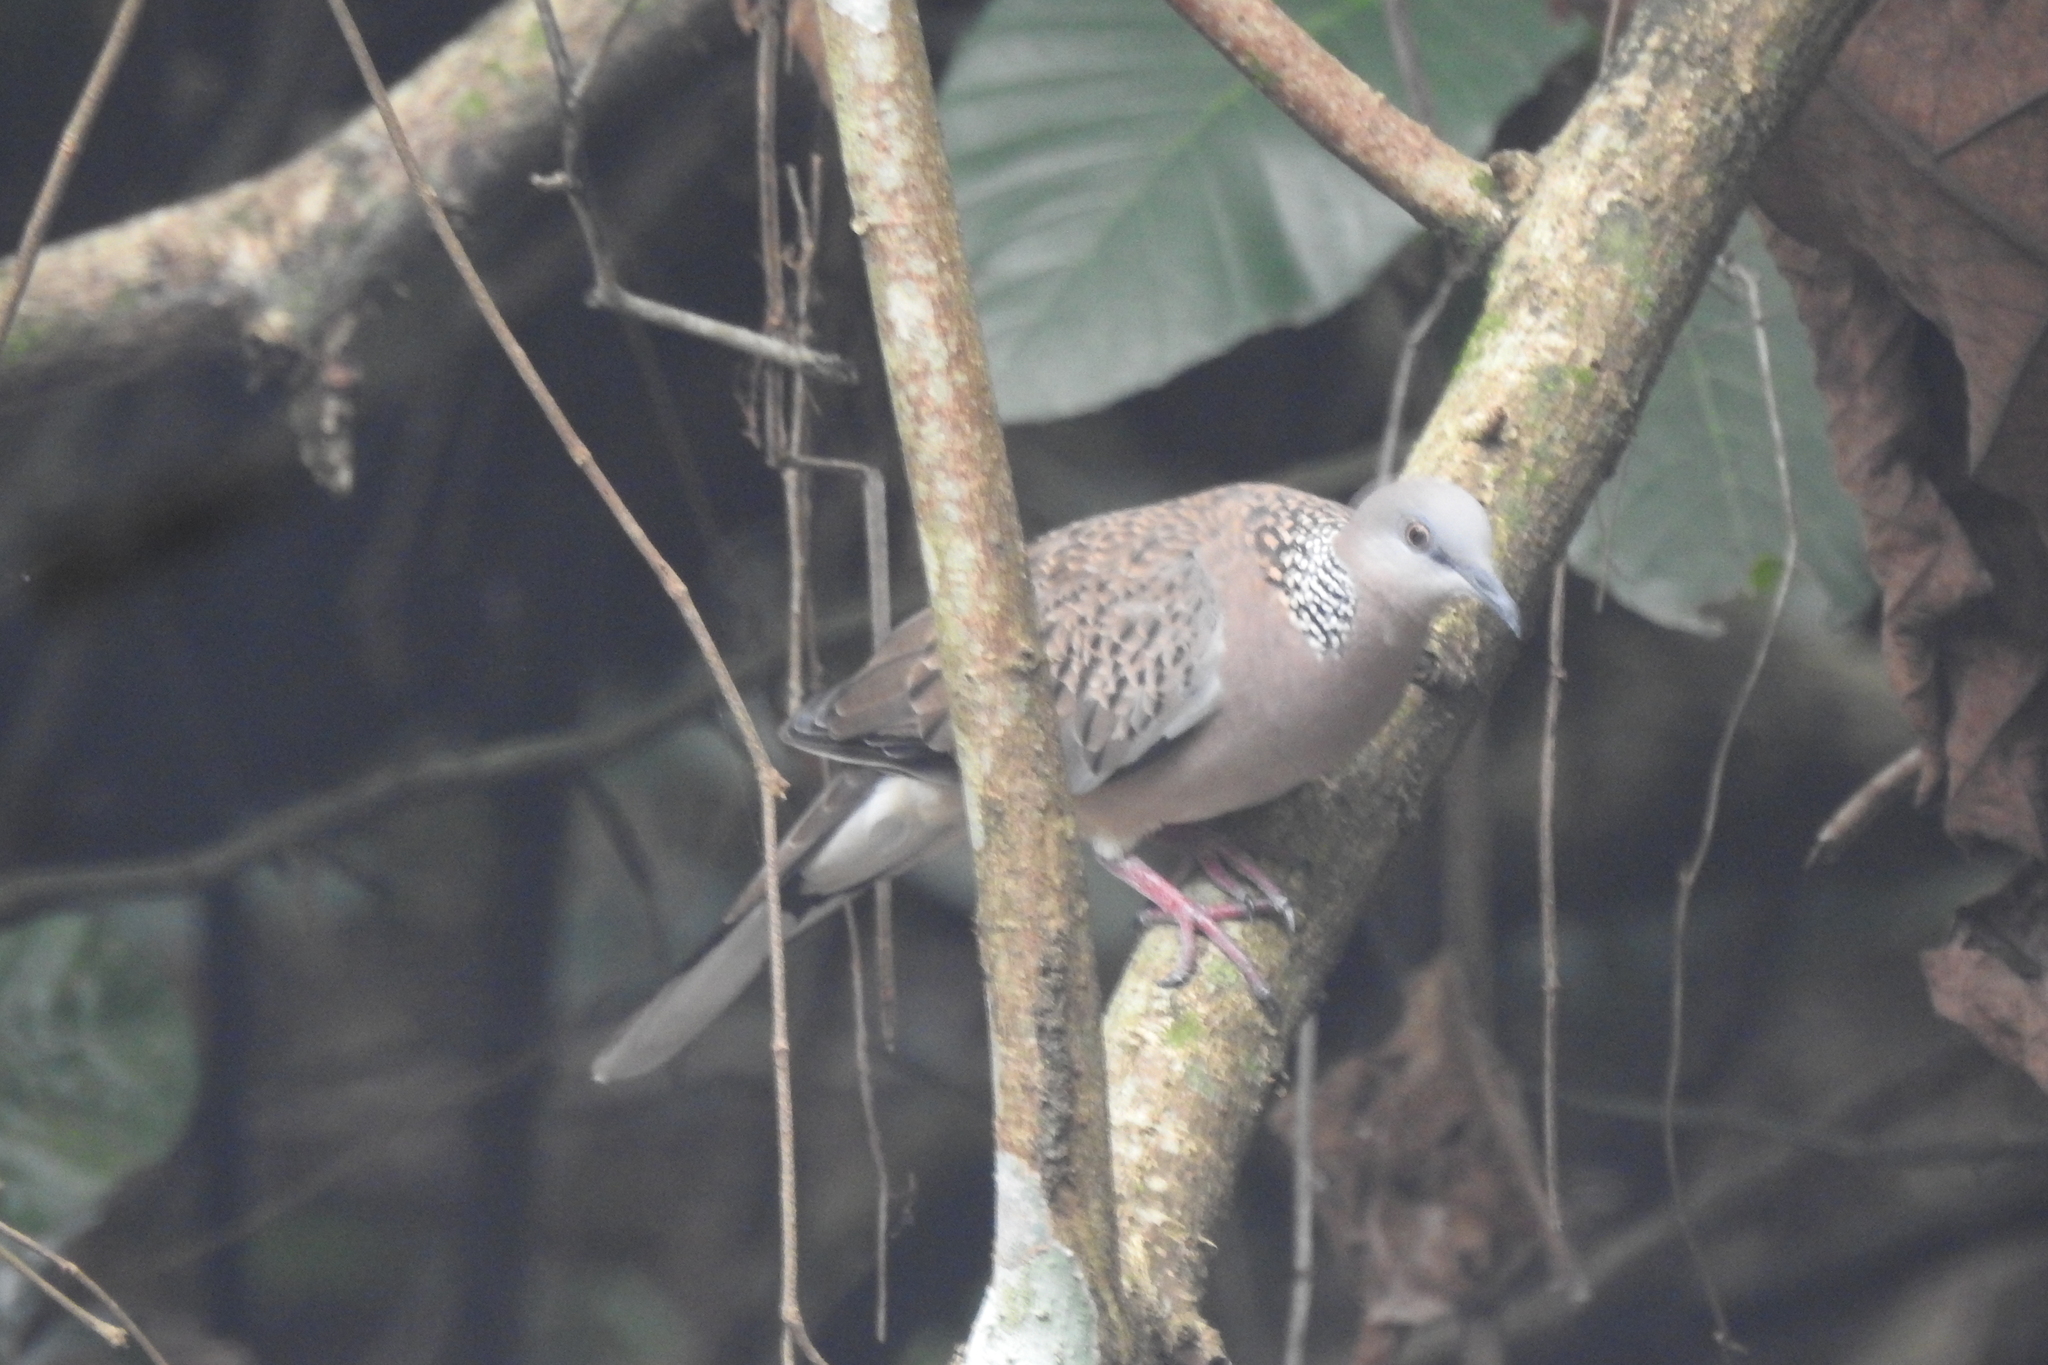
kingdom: Animalia
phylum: Chordata
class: Aves
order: Columbiformes
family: Columbidae
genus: Spilopelia
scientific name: Spilopelia chinensis
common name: Spotted dove
